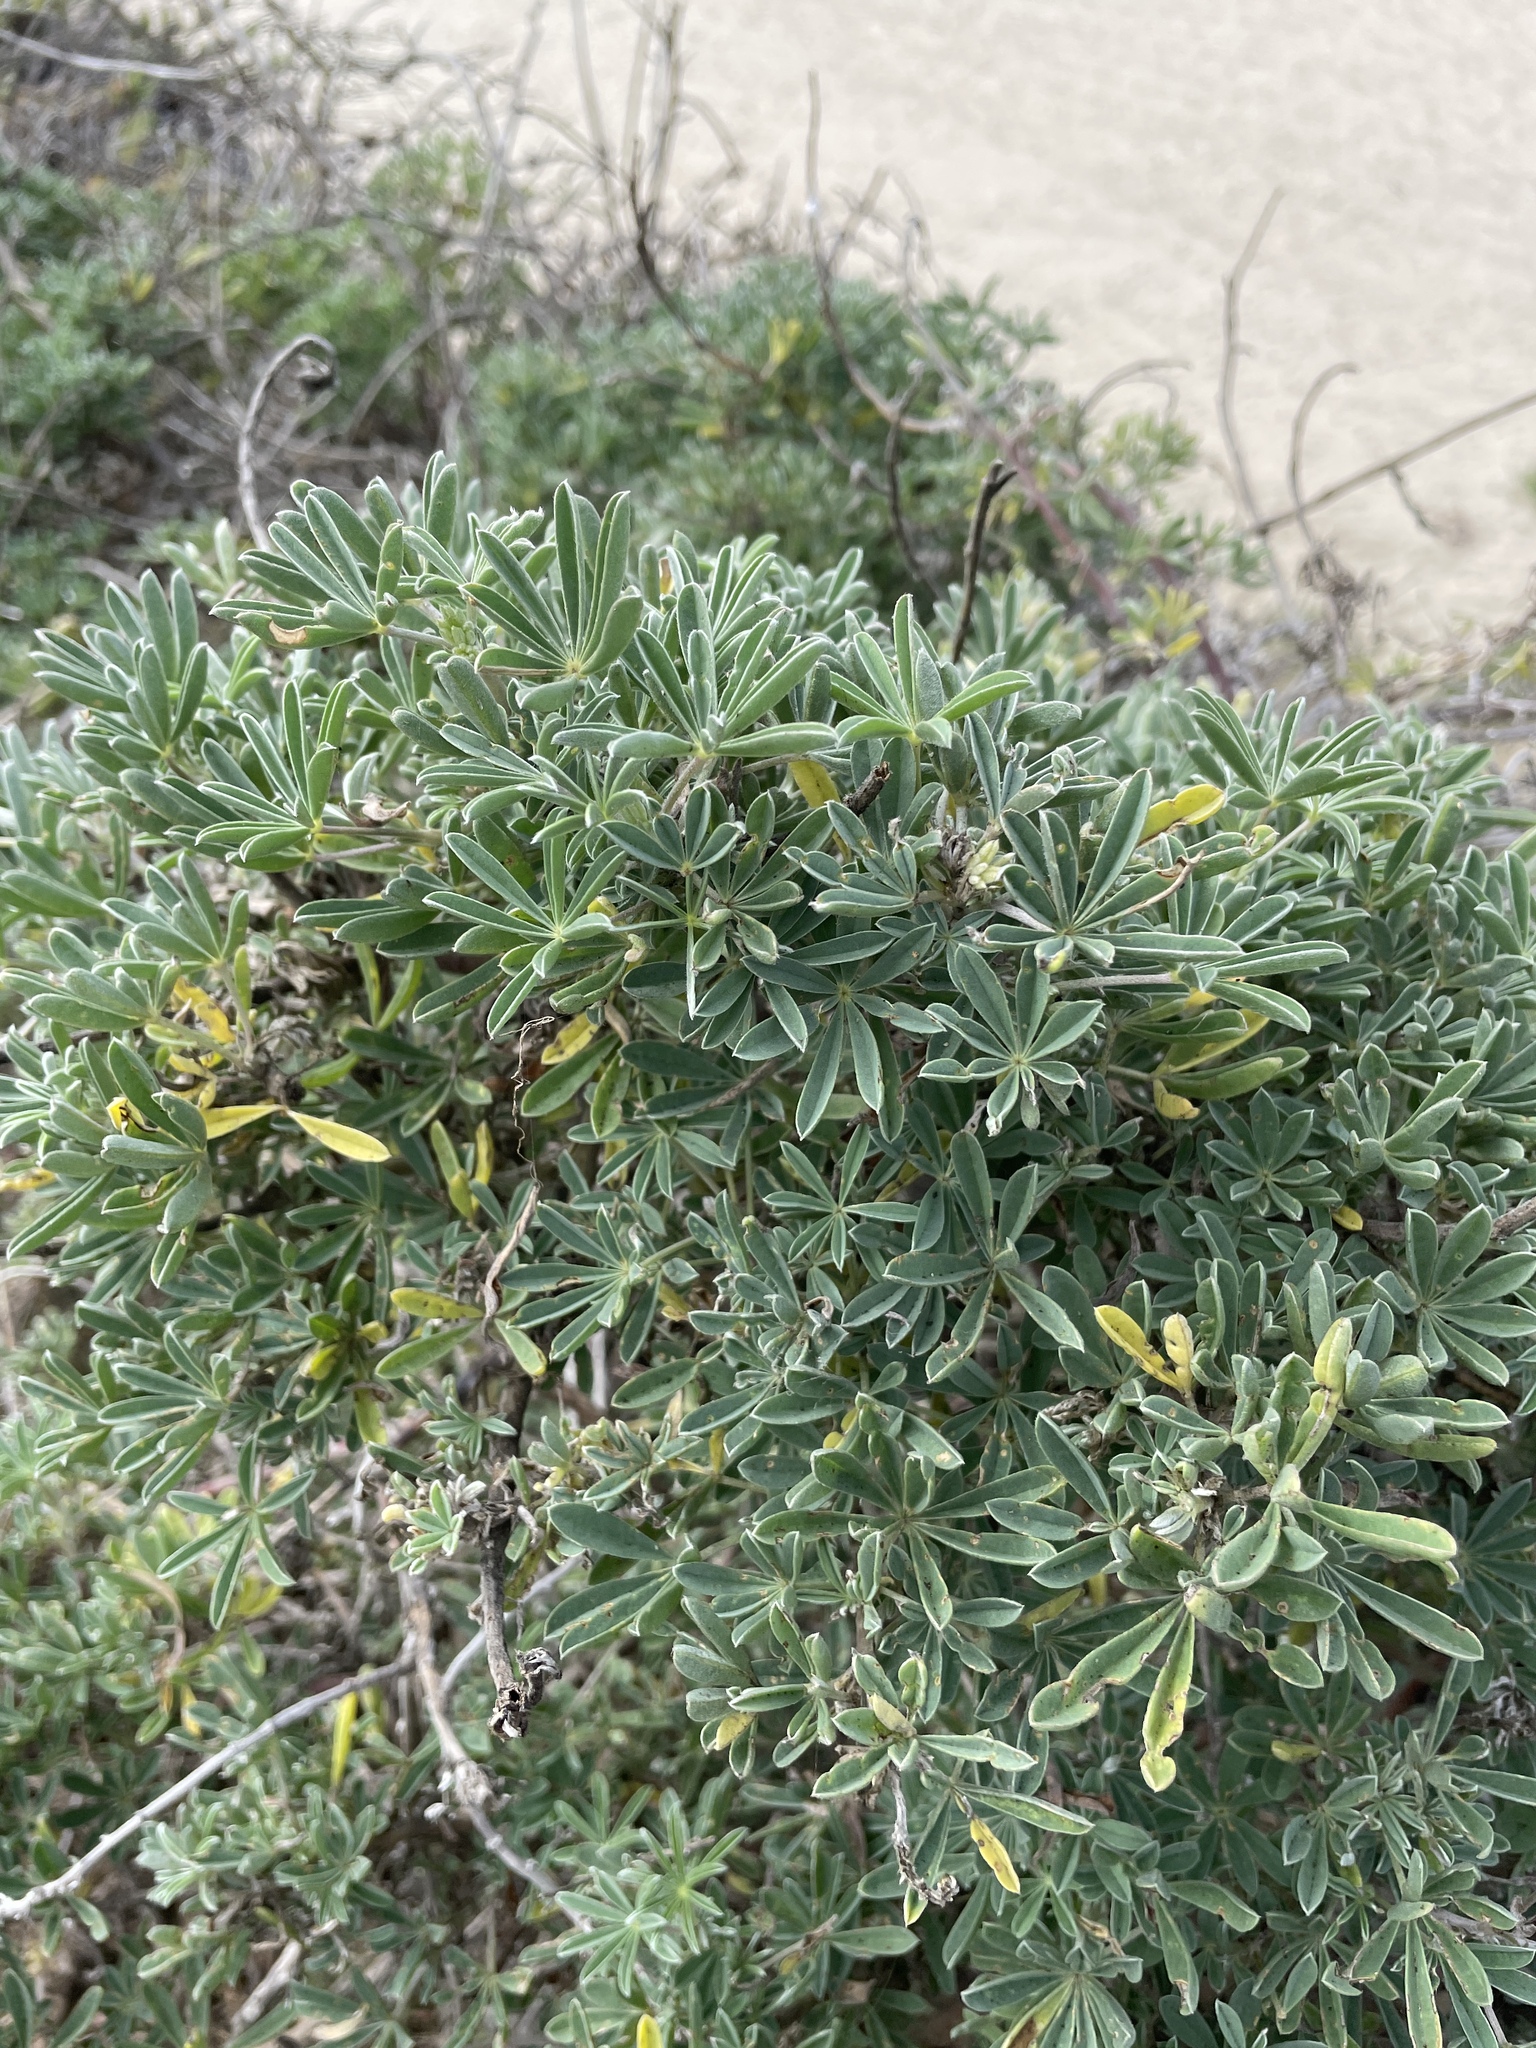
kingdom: Plantae
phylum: Tracheophyta
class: Magnoliopsida
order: Fabales
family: Fabaceae
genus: Lupinus
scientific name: Lupinus arboreus
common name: Yellow bush lupine
